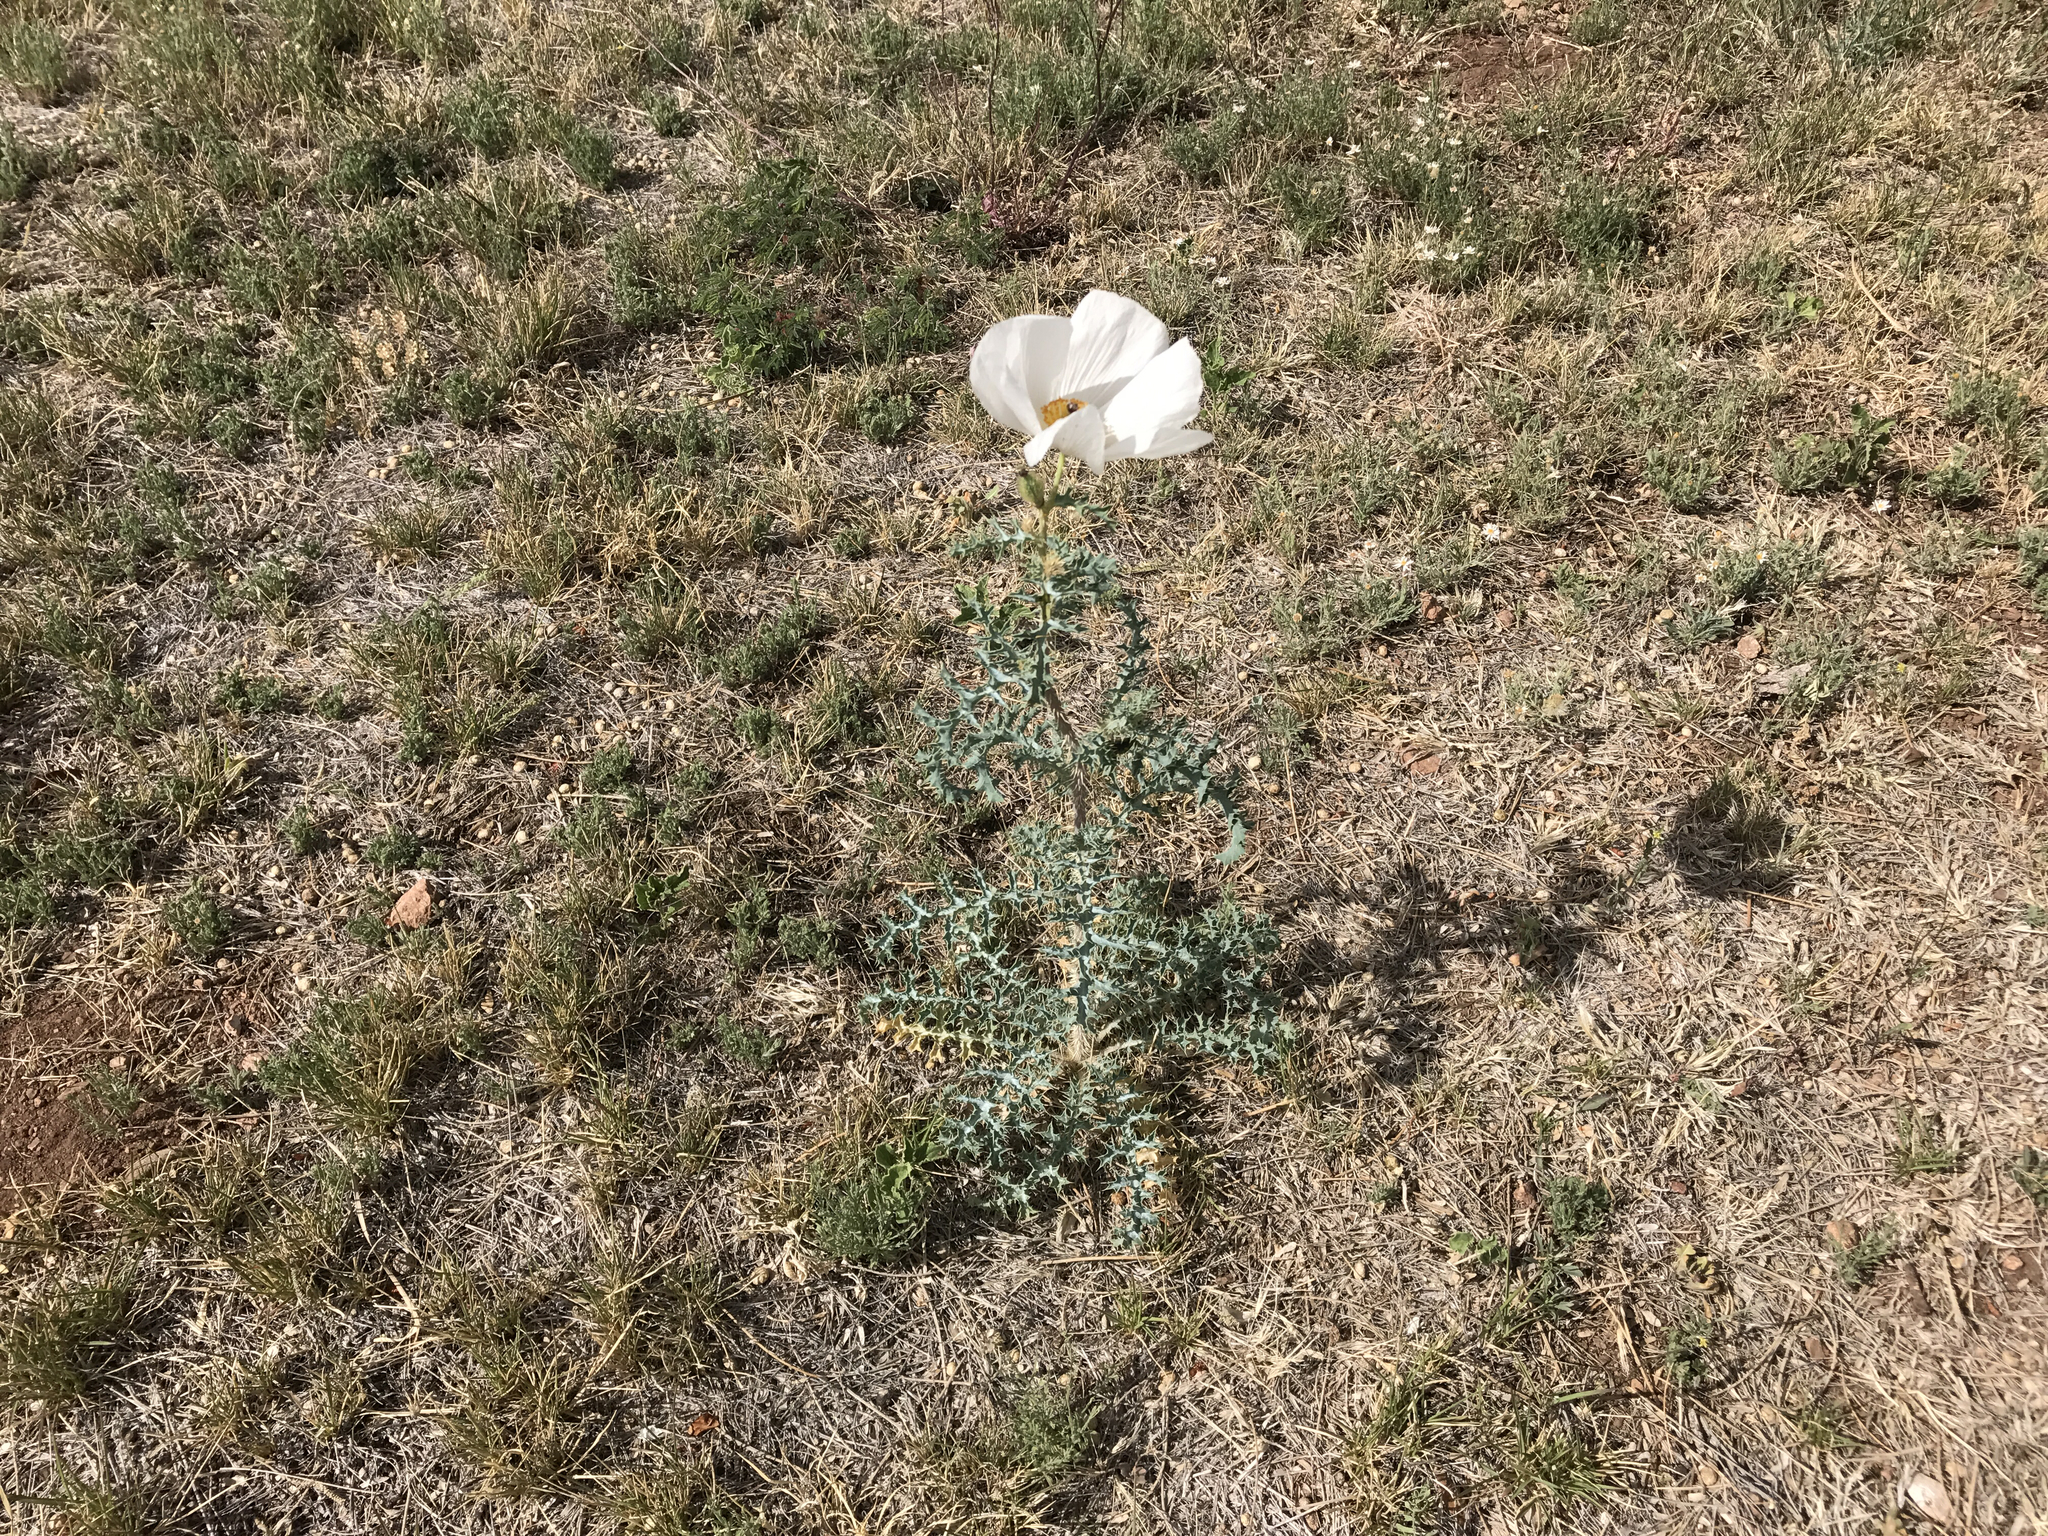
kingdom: Plantae
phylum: Tracheophyta
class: Magnoliopsida
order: Ranunculales
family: Papaveraceae
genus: Argemone
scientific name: Argemone pleiacantha
